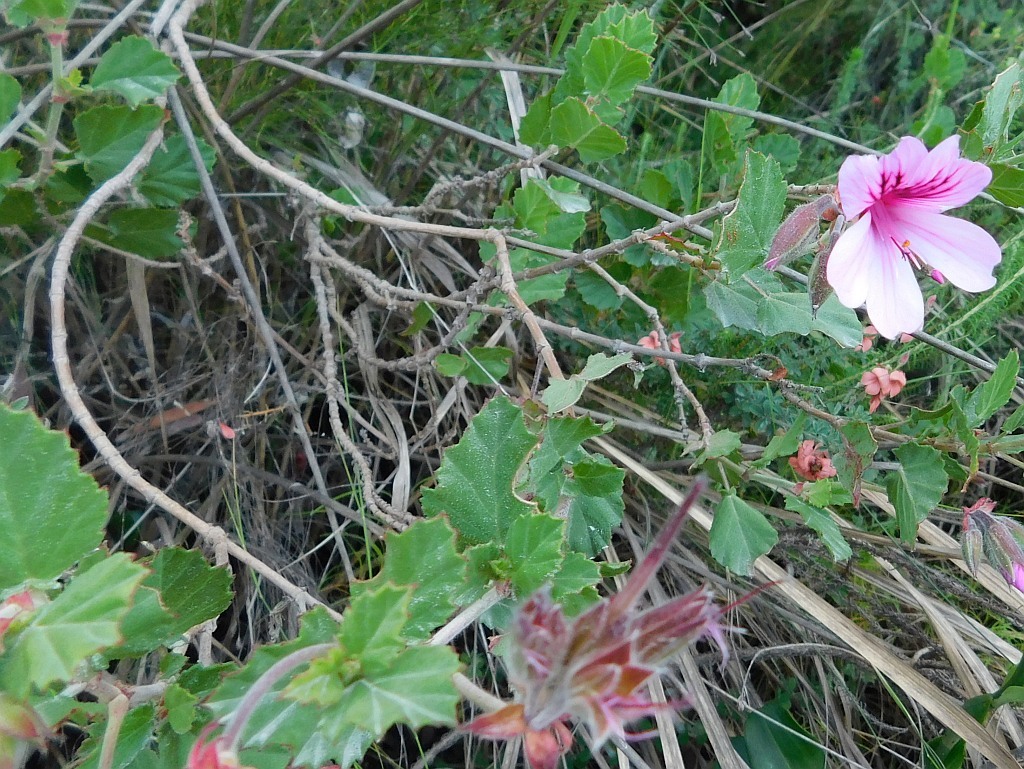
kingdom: Plantae
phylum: Tracheophyta
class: Magnoliopsida
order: Geraniales
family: Geraniaceae
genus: Pelargonium
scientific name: Pelargonium betulinum
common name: Birch-leaf pelargonium
